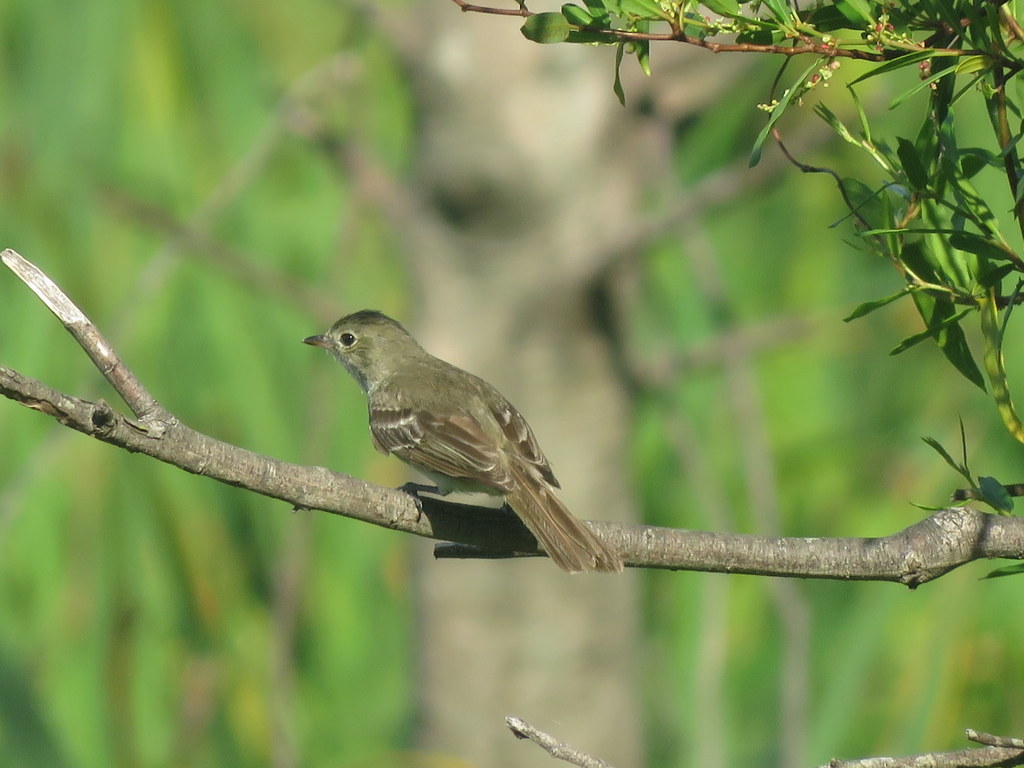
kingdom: Animalia
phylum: Chordata
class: Aves
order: Passeriformes
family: Tyrannidae
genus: Elaenia
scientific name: Elaenia parvirostris
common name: Small-billed elaenia
